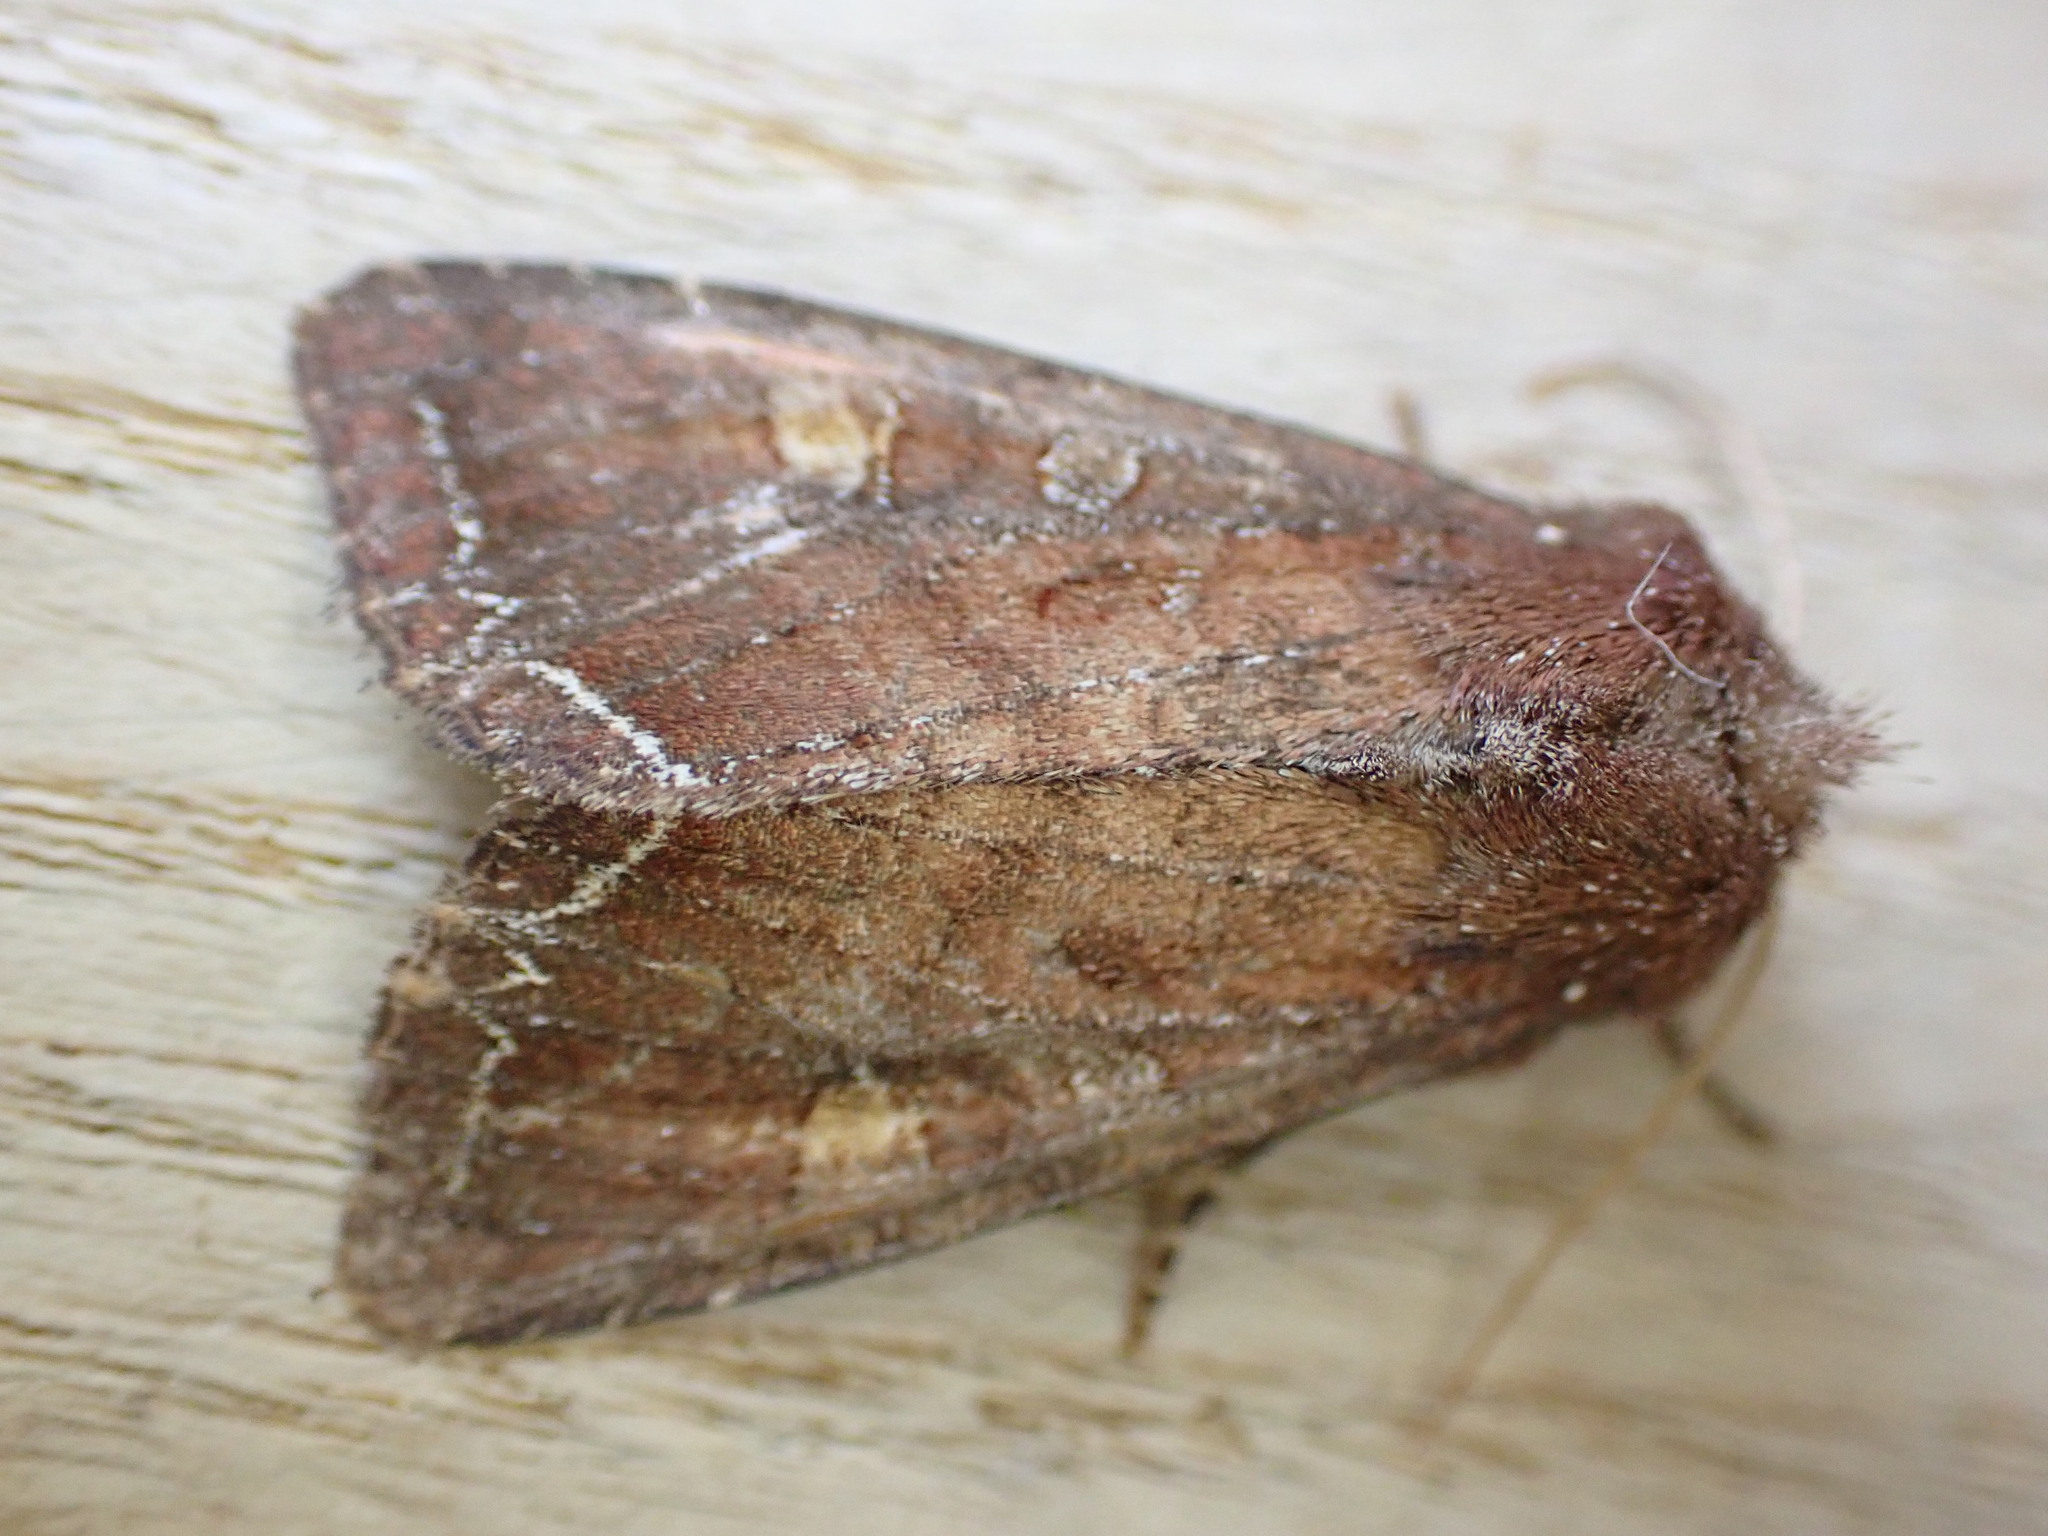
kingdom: Animalia
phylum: Arthropoda
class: Insecta
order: Lepidoptera
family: Noctuidae
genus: Lacanobia
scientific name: Lacanobia oleracea
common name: Bright-line brown-eye
